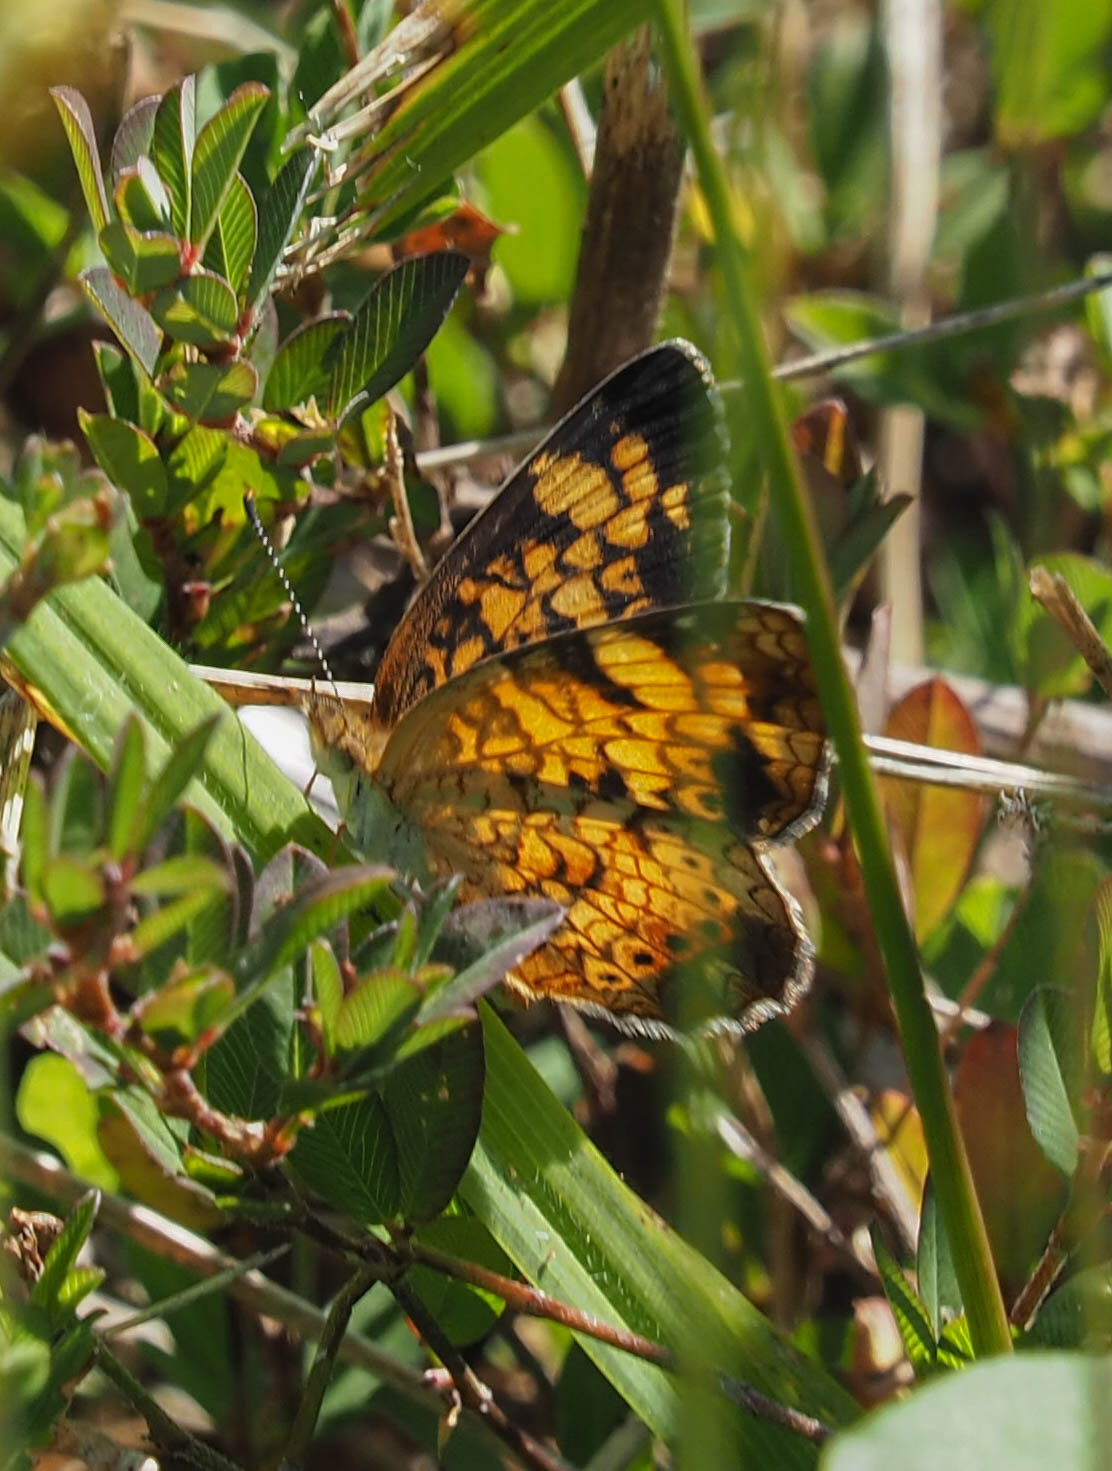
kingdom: Animalia
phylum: Arthropoda
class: Insecta
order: Lepidoptera
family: Nymphalidae
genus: Phyciodes
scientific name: Phyciodes tharos
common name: Pearl crescent
